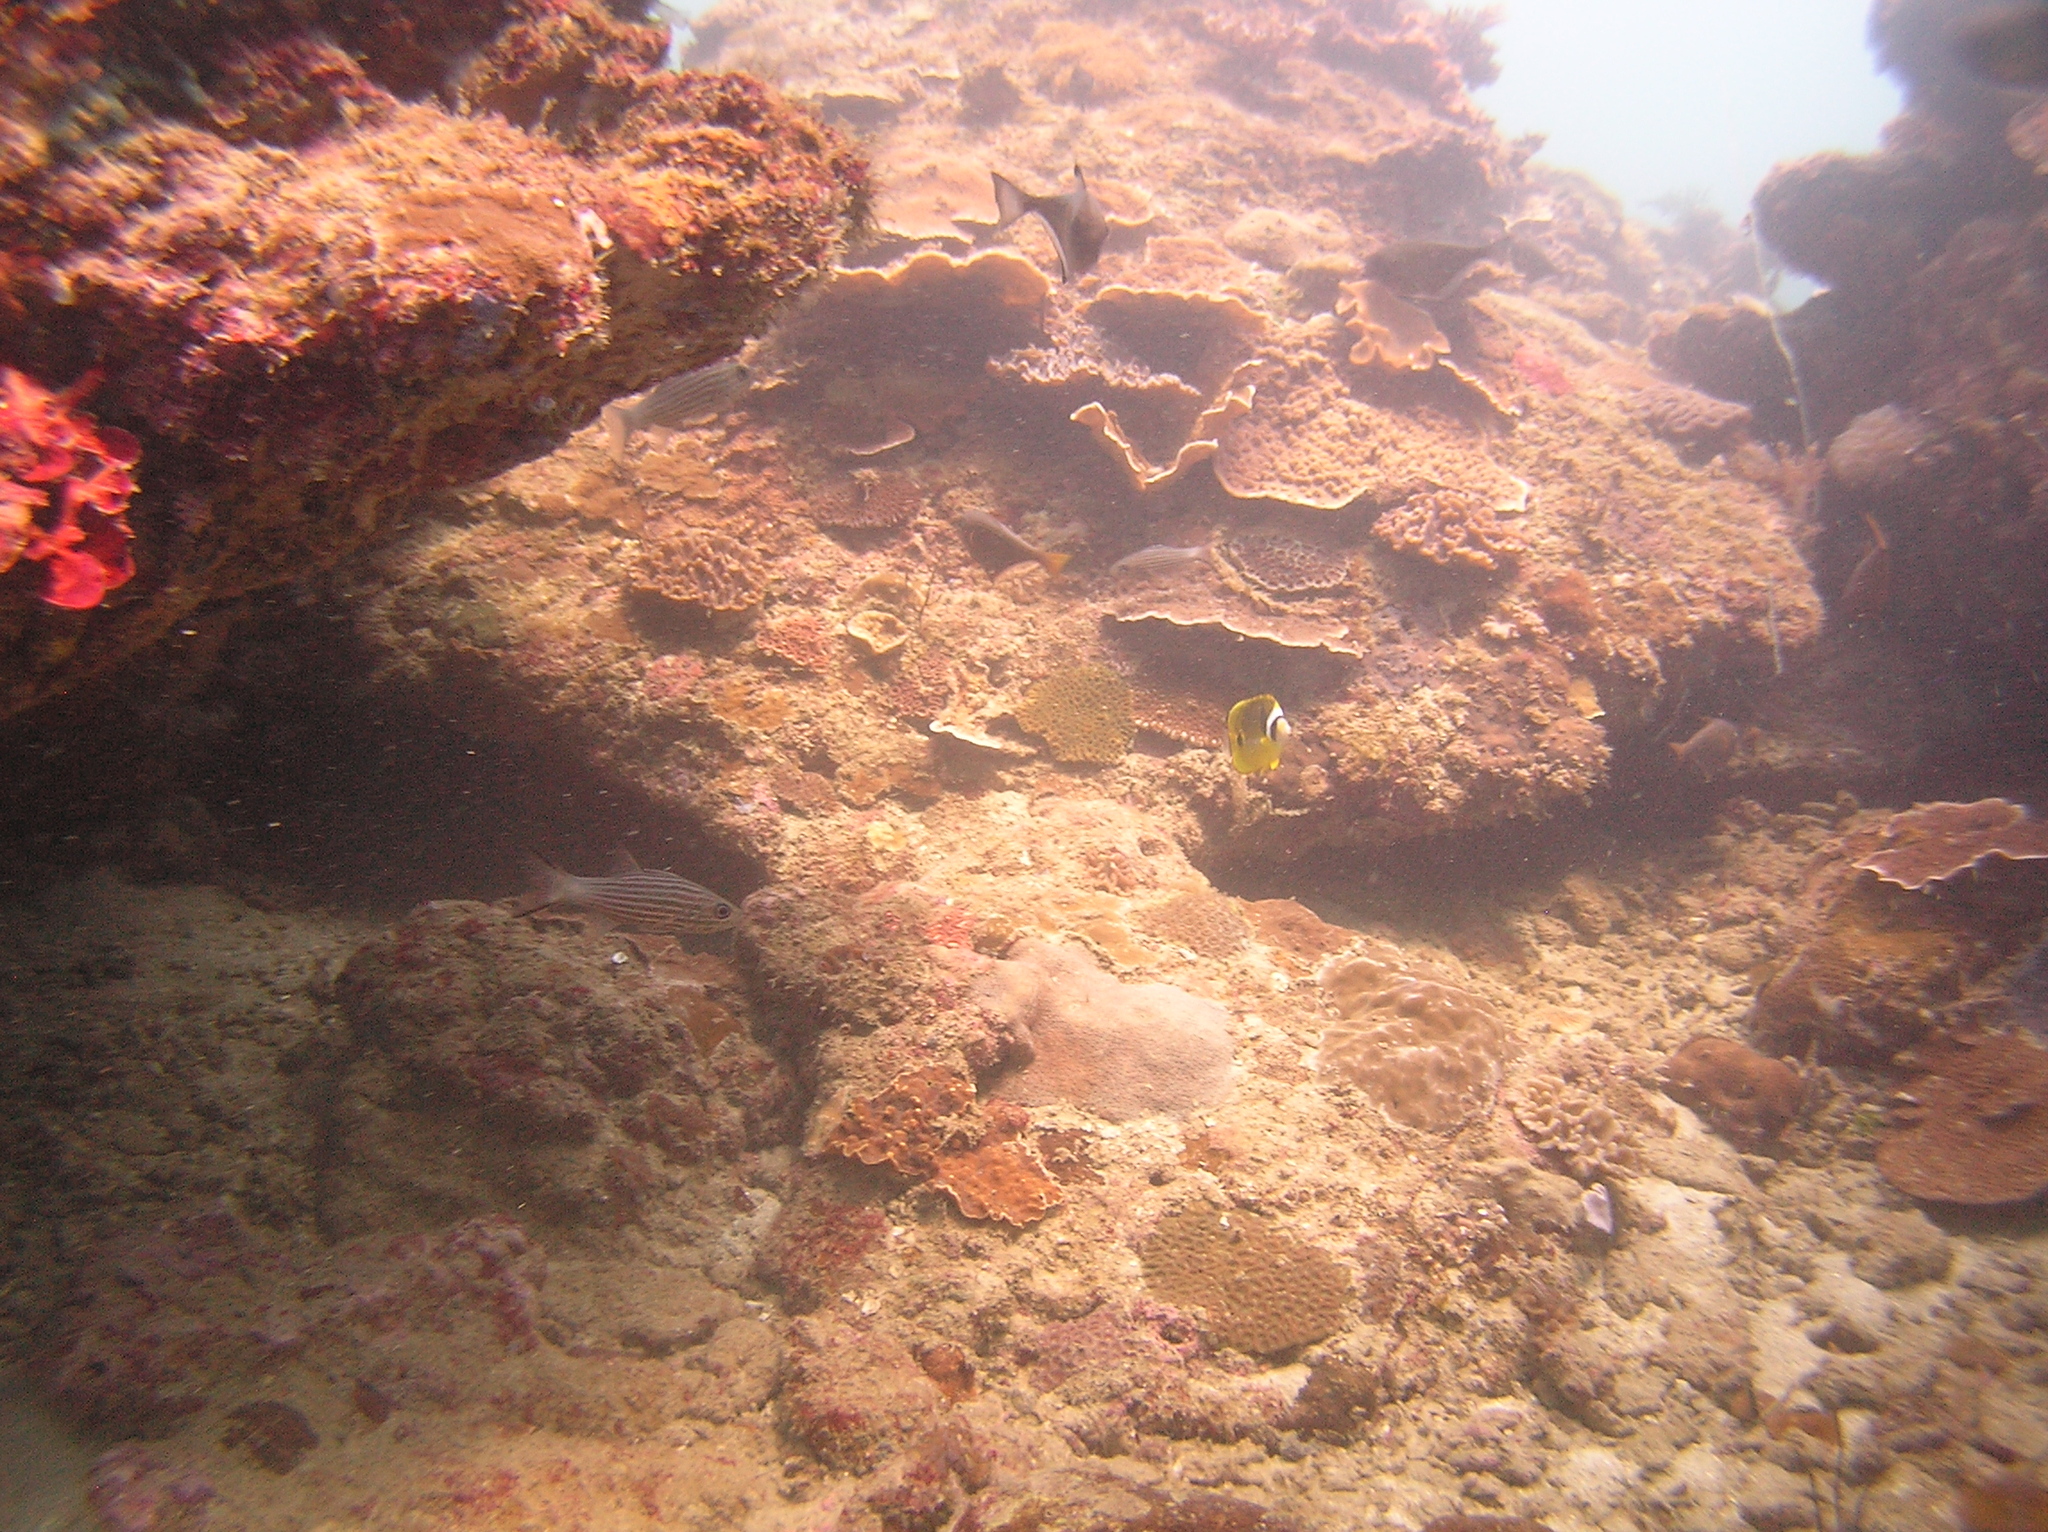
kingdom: Animalia
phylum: Chordata
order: Perciformes
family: Chaetodontidae
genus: Chaetodon
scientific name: Chaetodon lunula
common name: Raccoon butterflyfish
